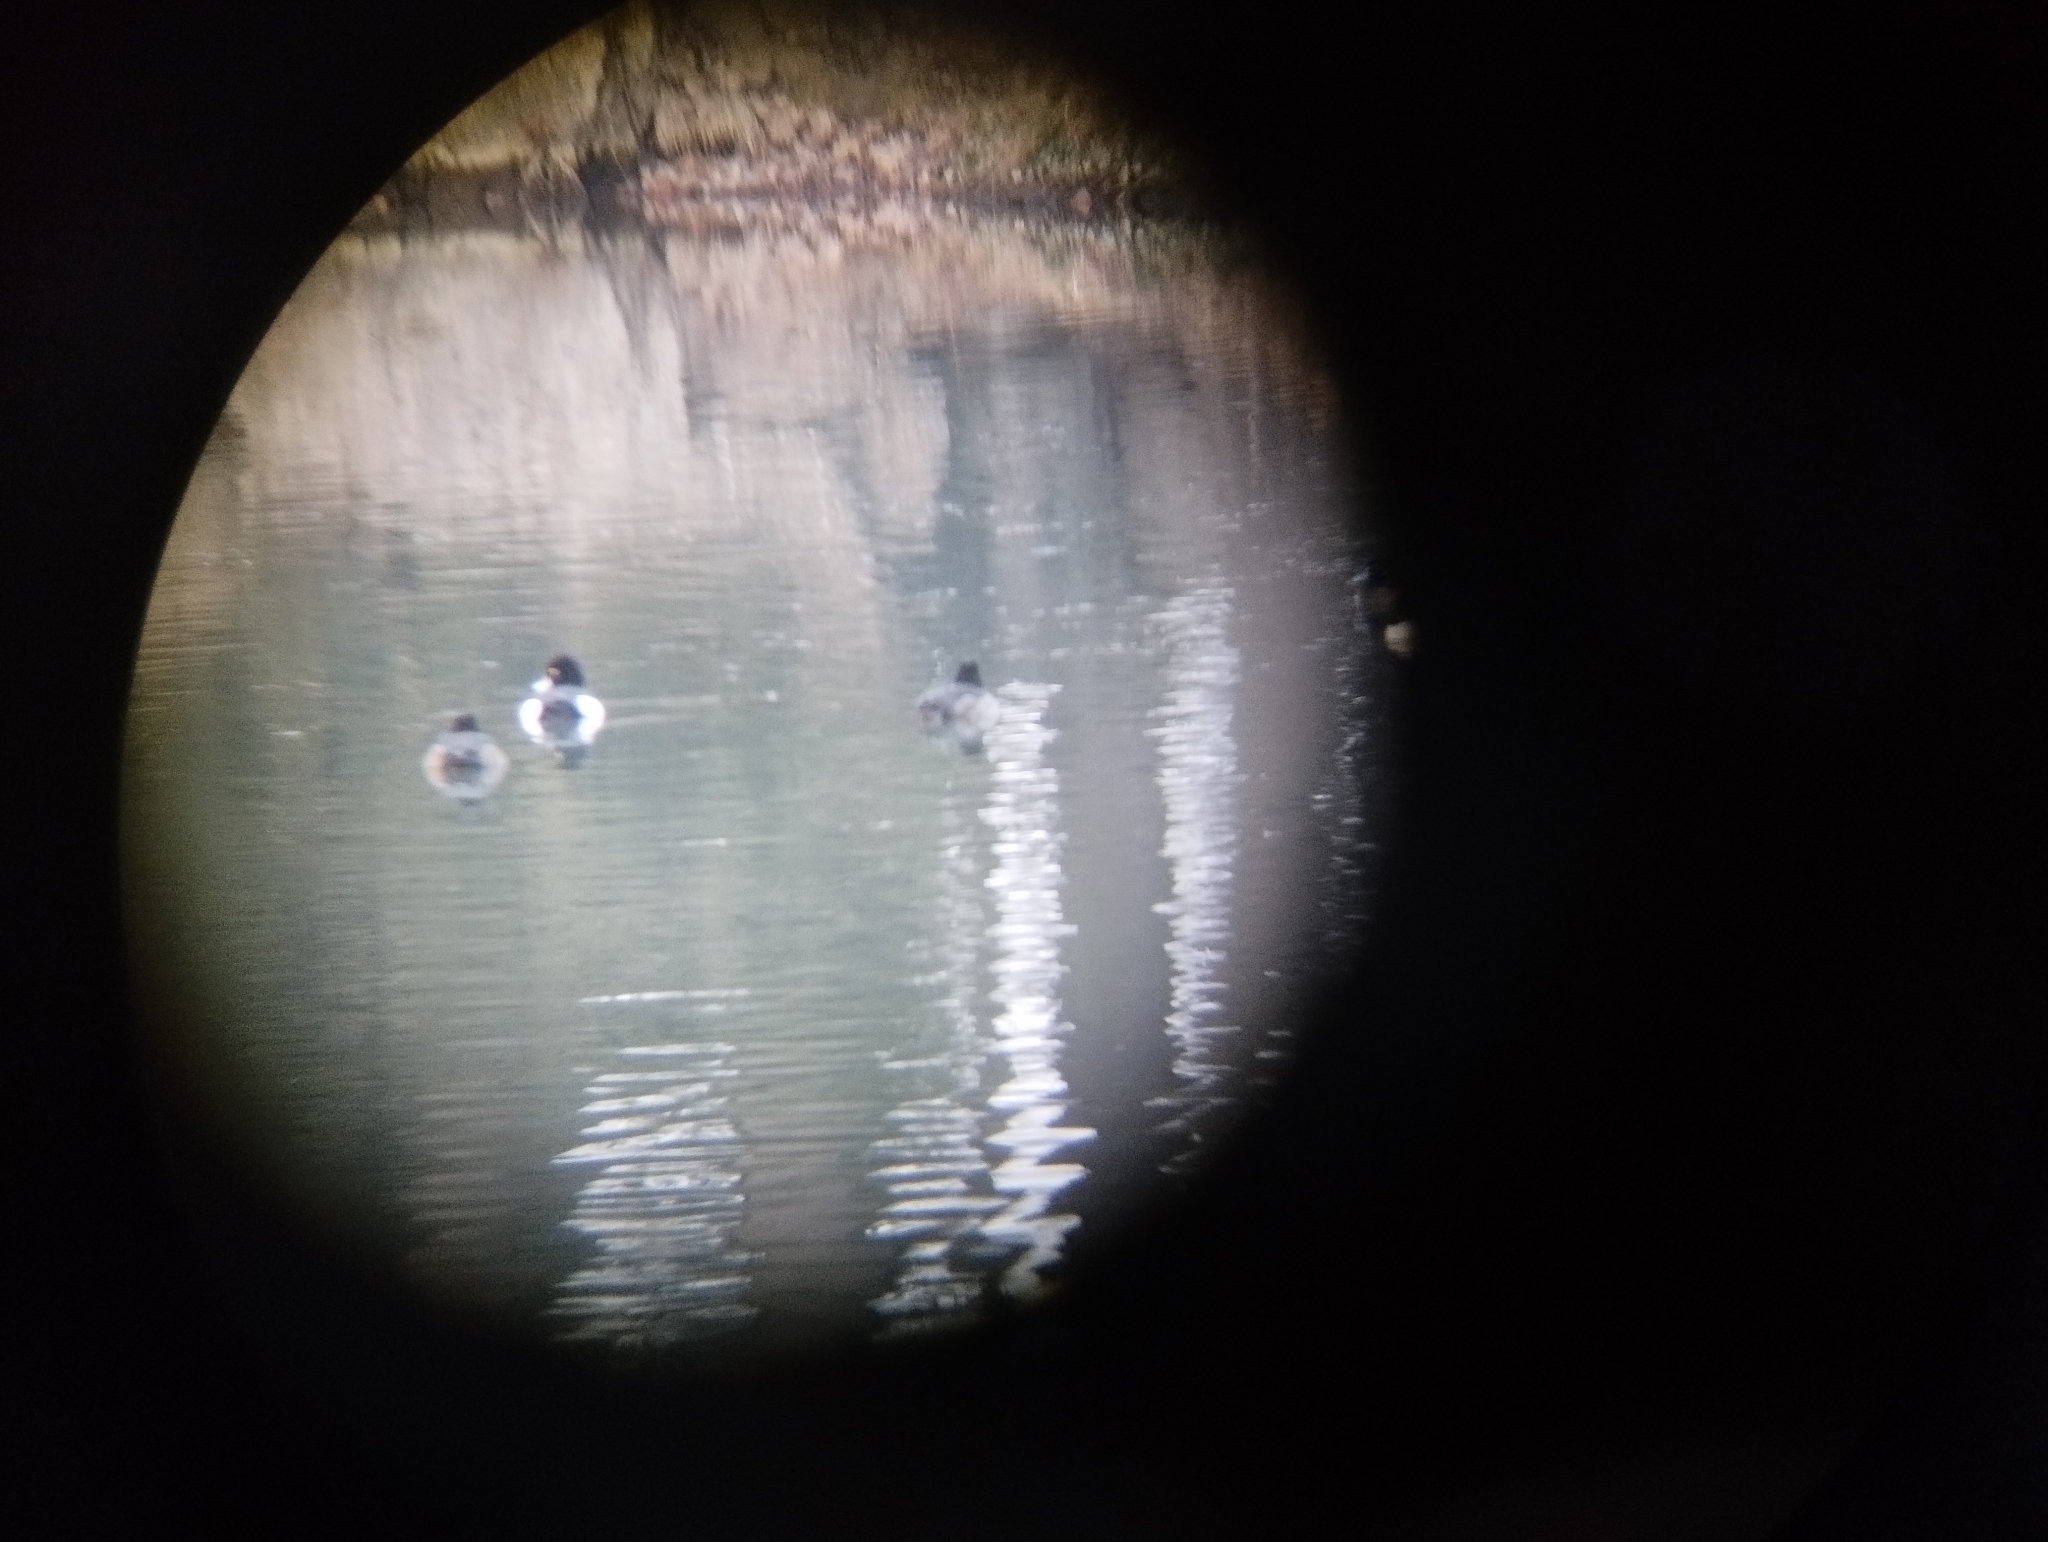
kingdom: Animalia
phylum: Chordata
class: Aves
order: Anseriformes
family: Anatidae
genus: Aythya
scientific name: Aythya fuligula
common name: Tufted duck
